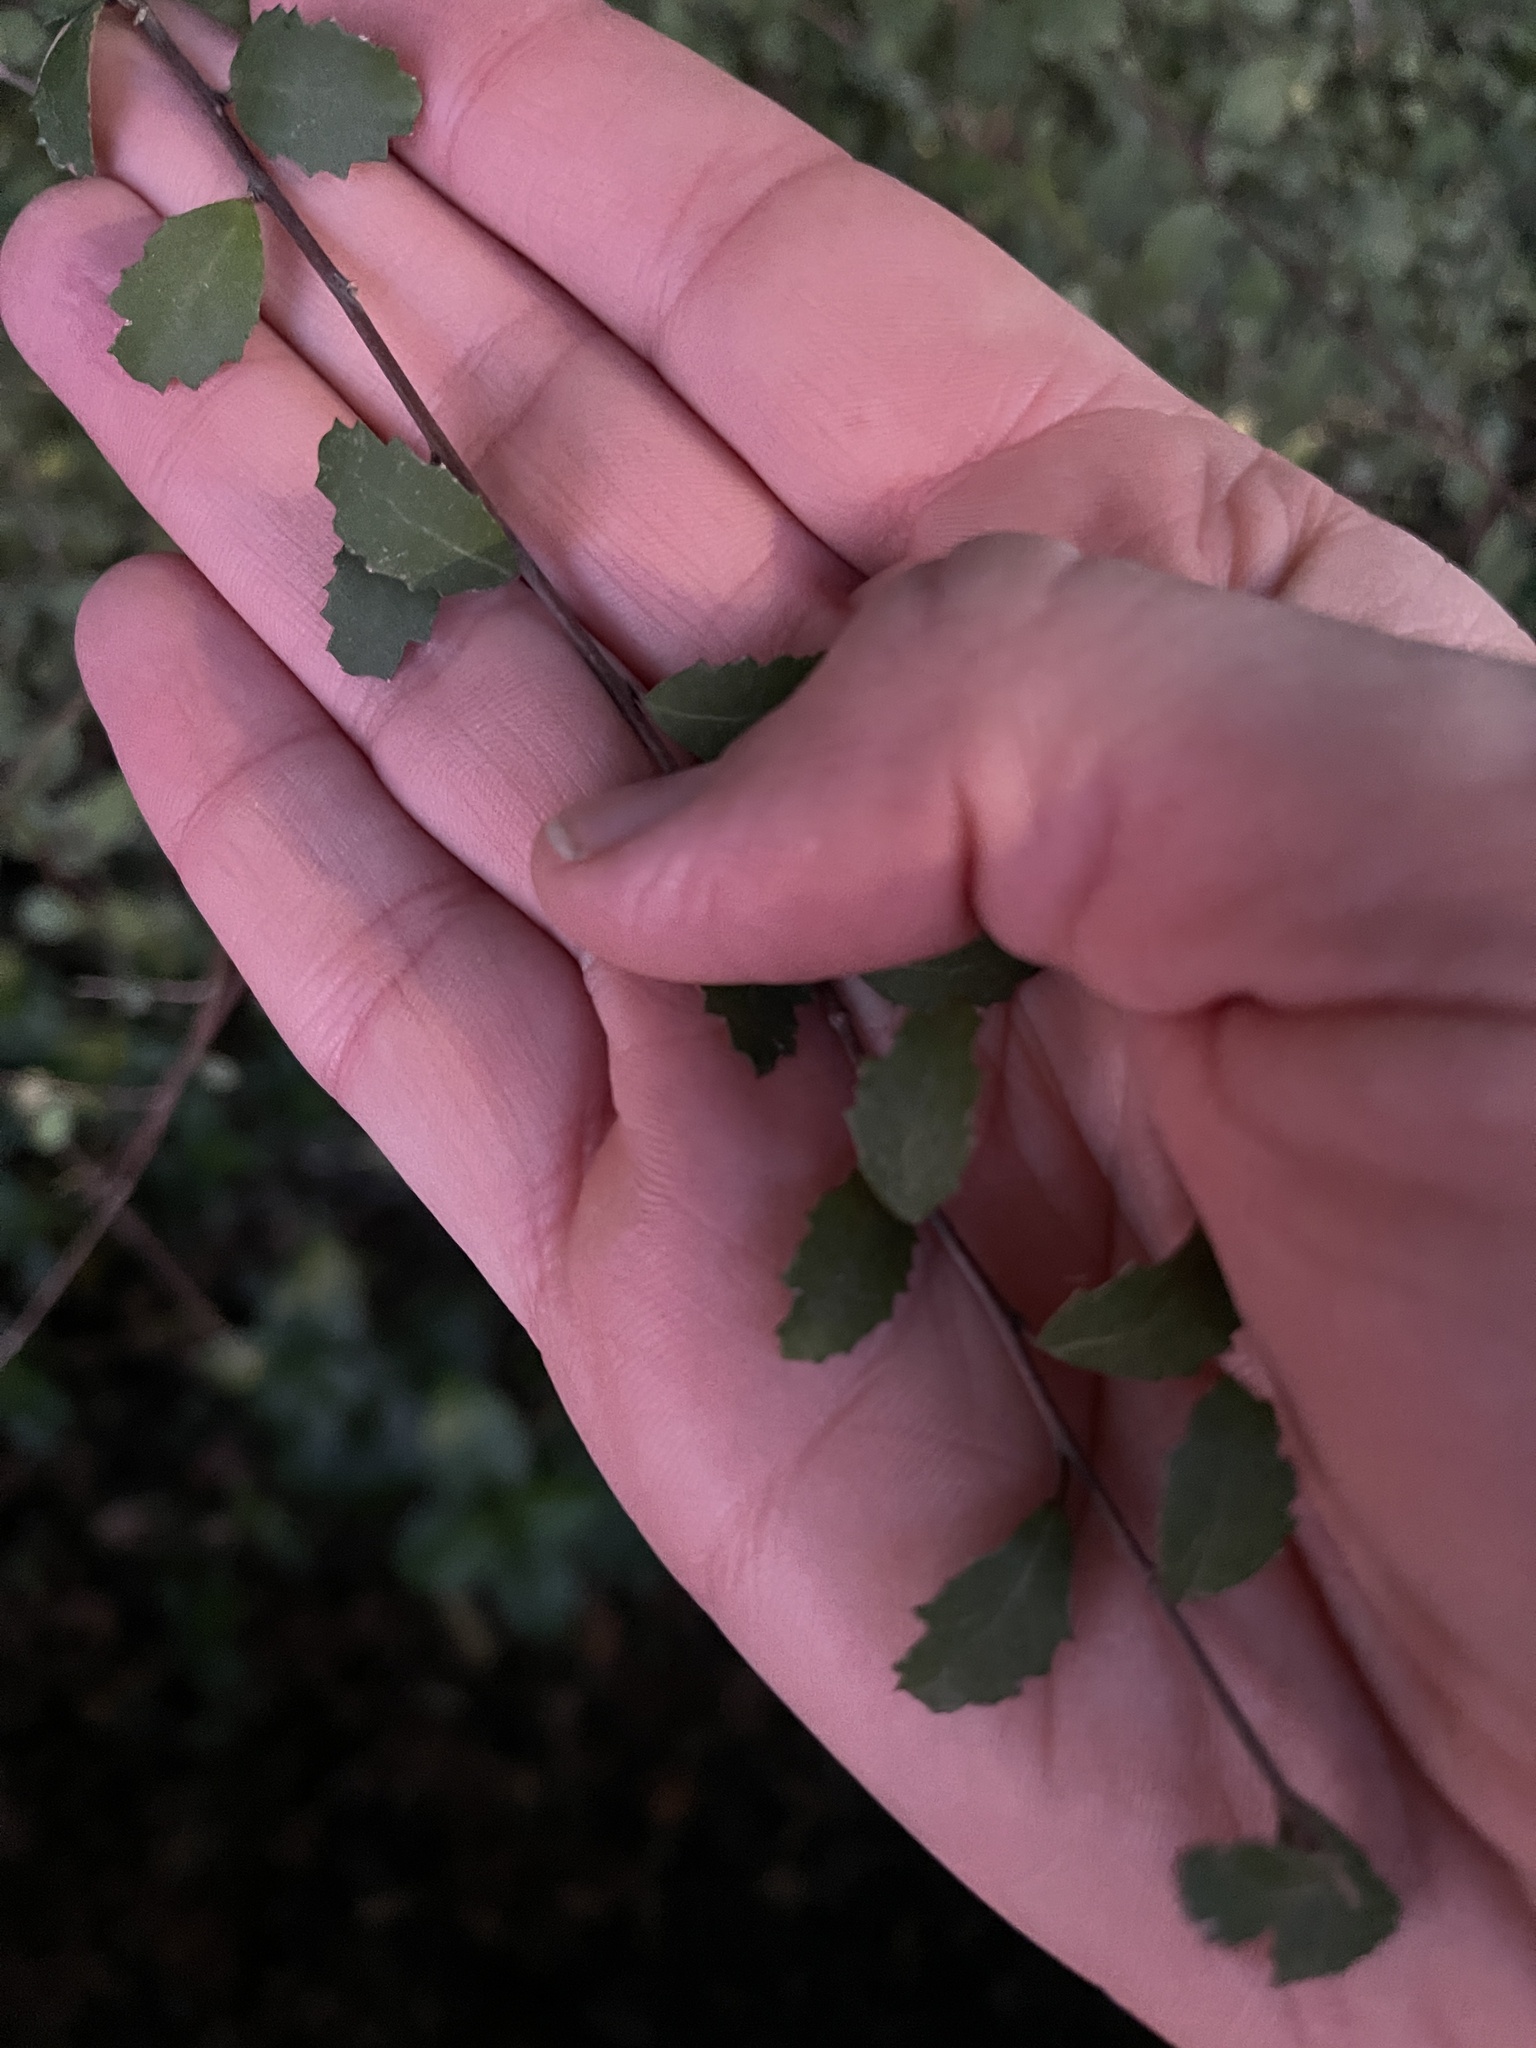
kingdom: Plantae
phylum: Tracheophyta
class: Magnoliopsida
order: Malvales
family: Malvaceae
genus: Hoheria
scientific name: Hoheria angustifolia
